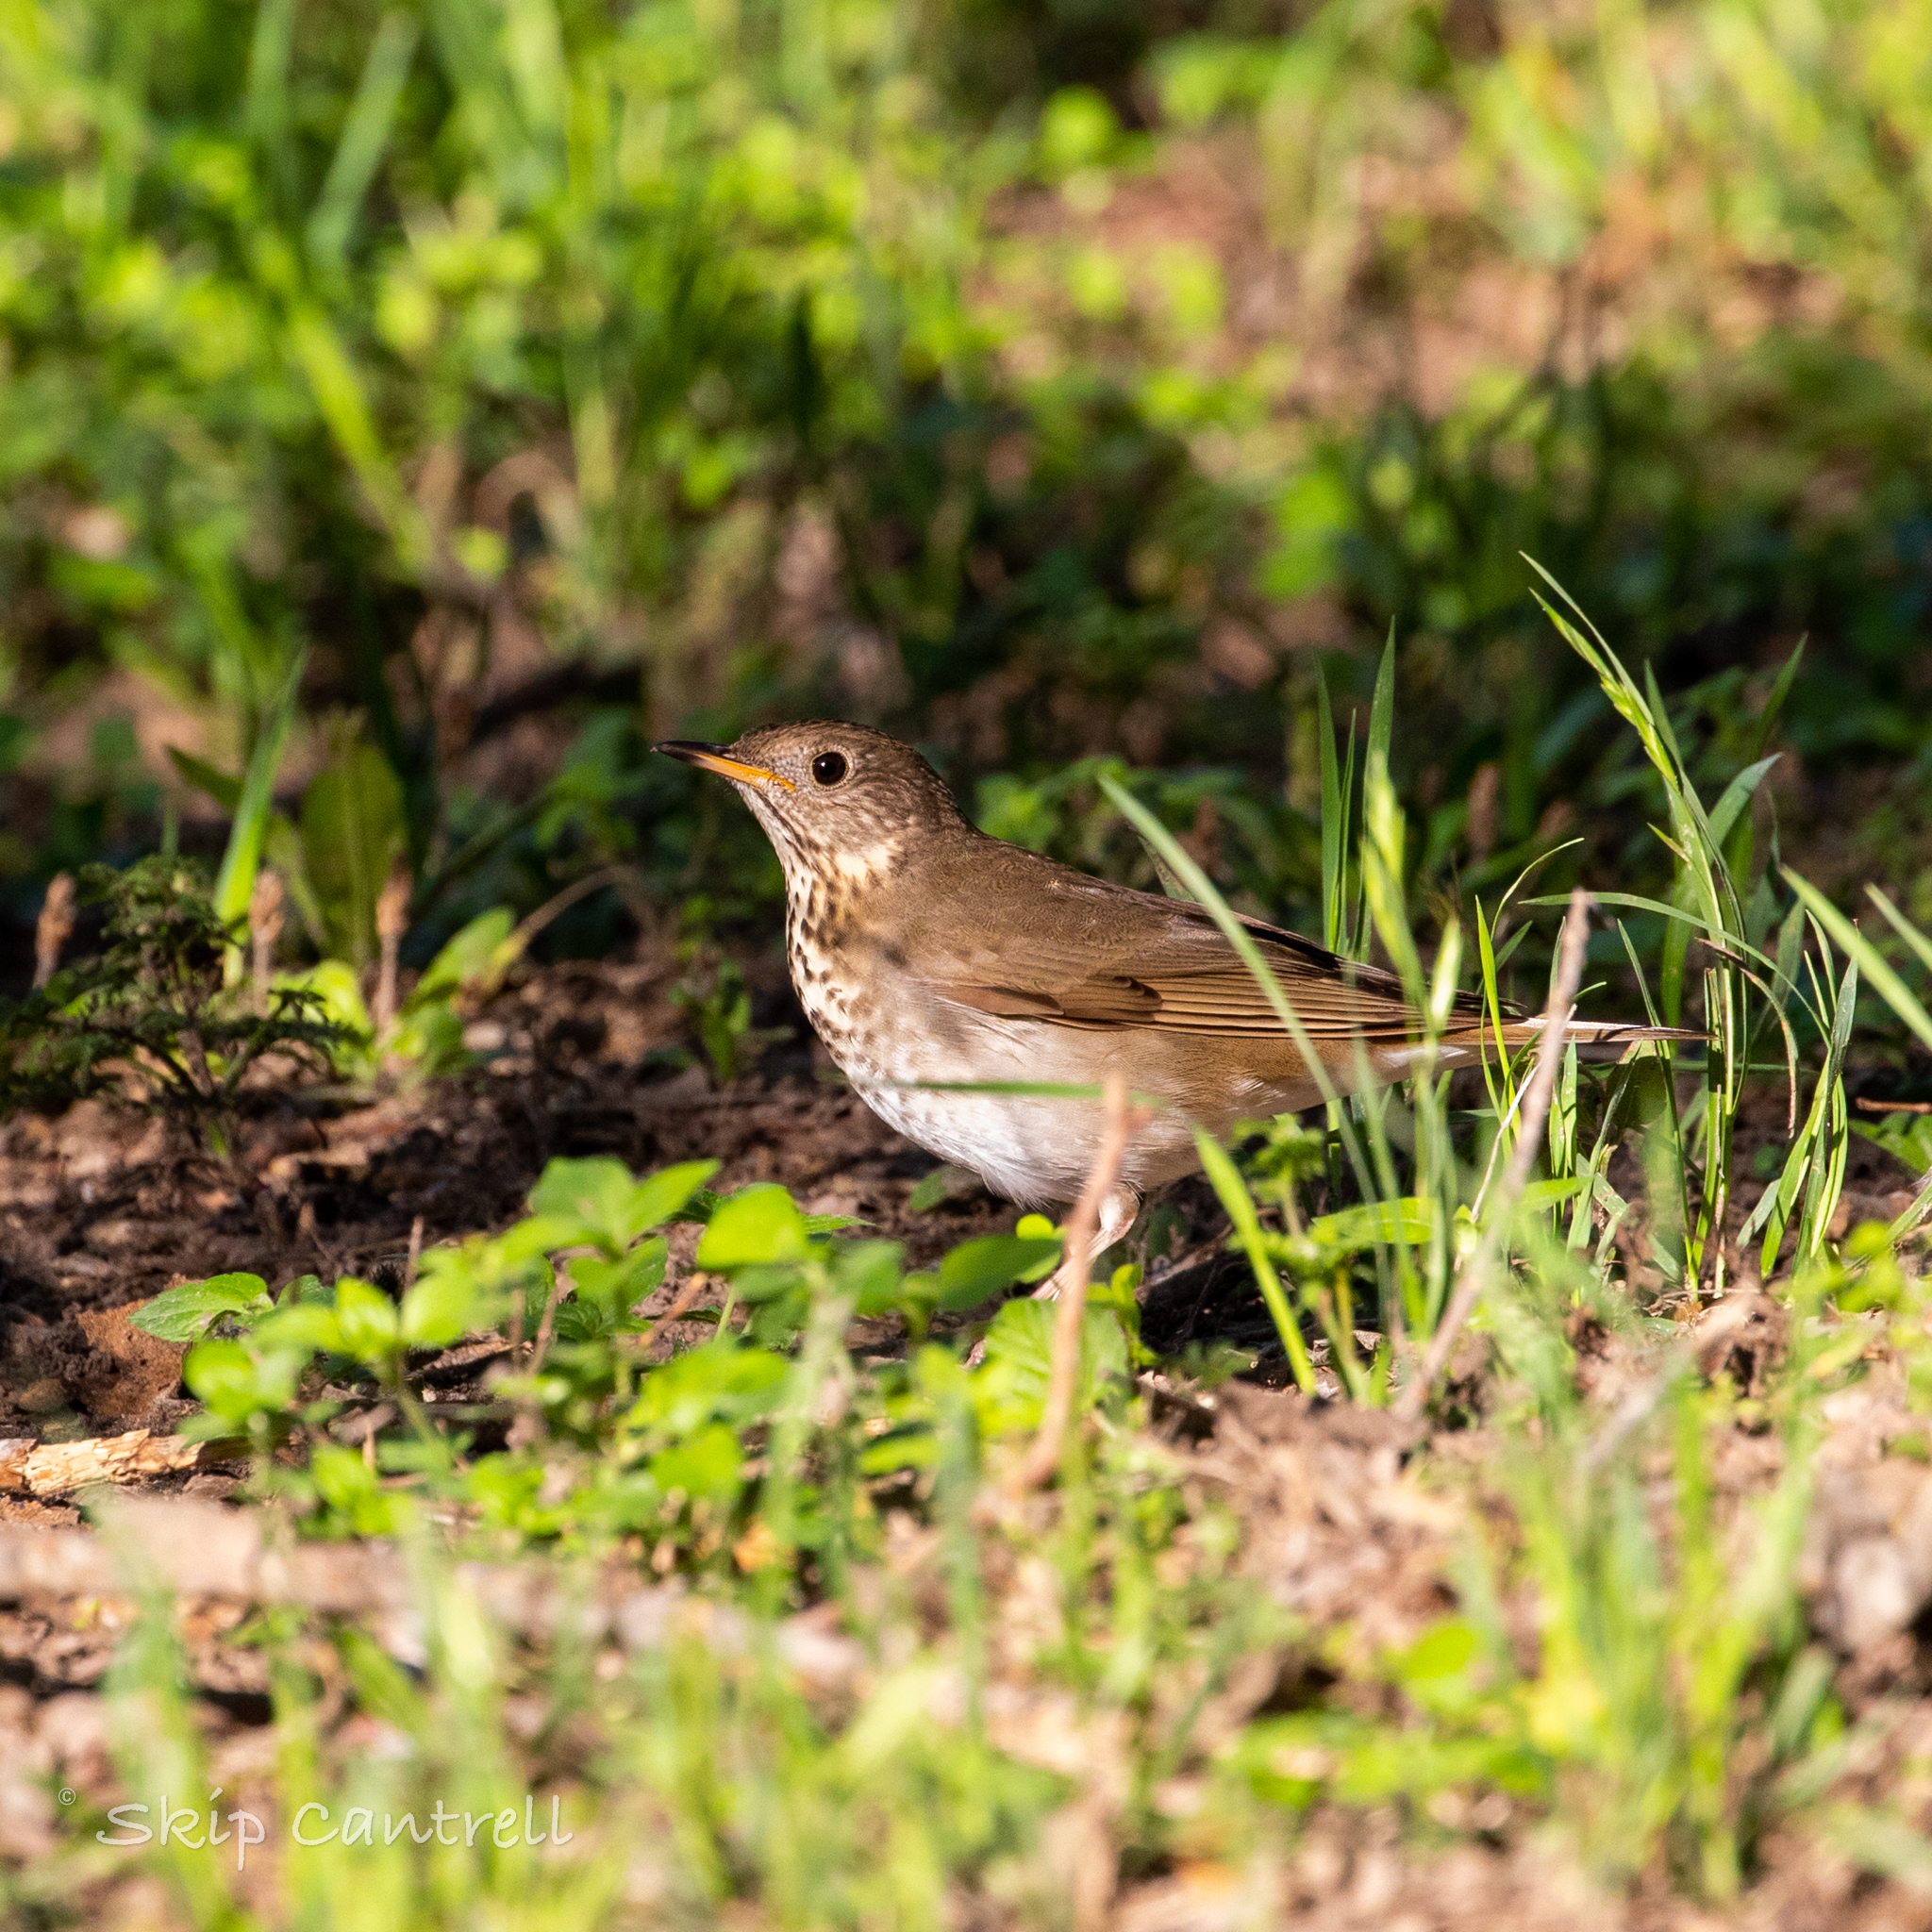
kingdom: Animalia
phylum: Chordata
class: Aves
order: Passeriformes
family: Turdidae
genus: Catharus
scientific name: Catharus minimus
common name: Grey-cheeked thrush
